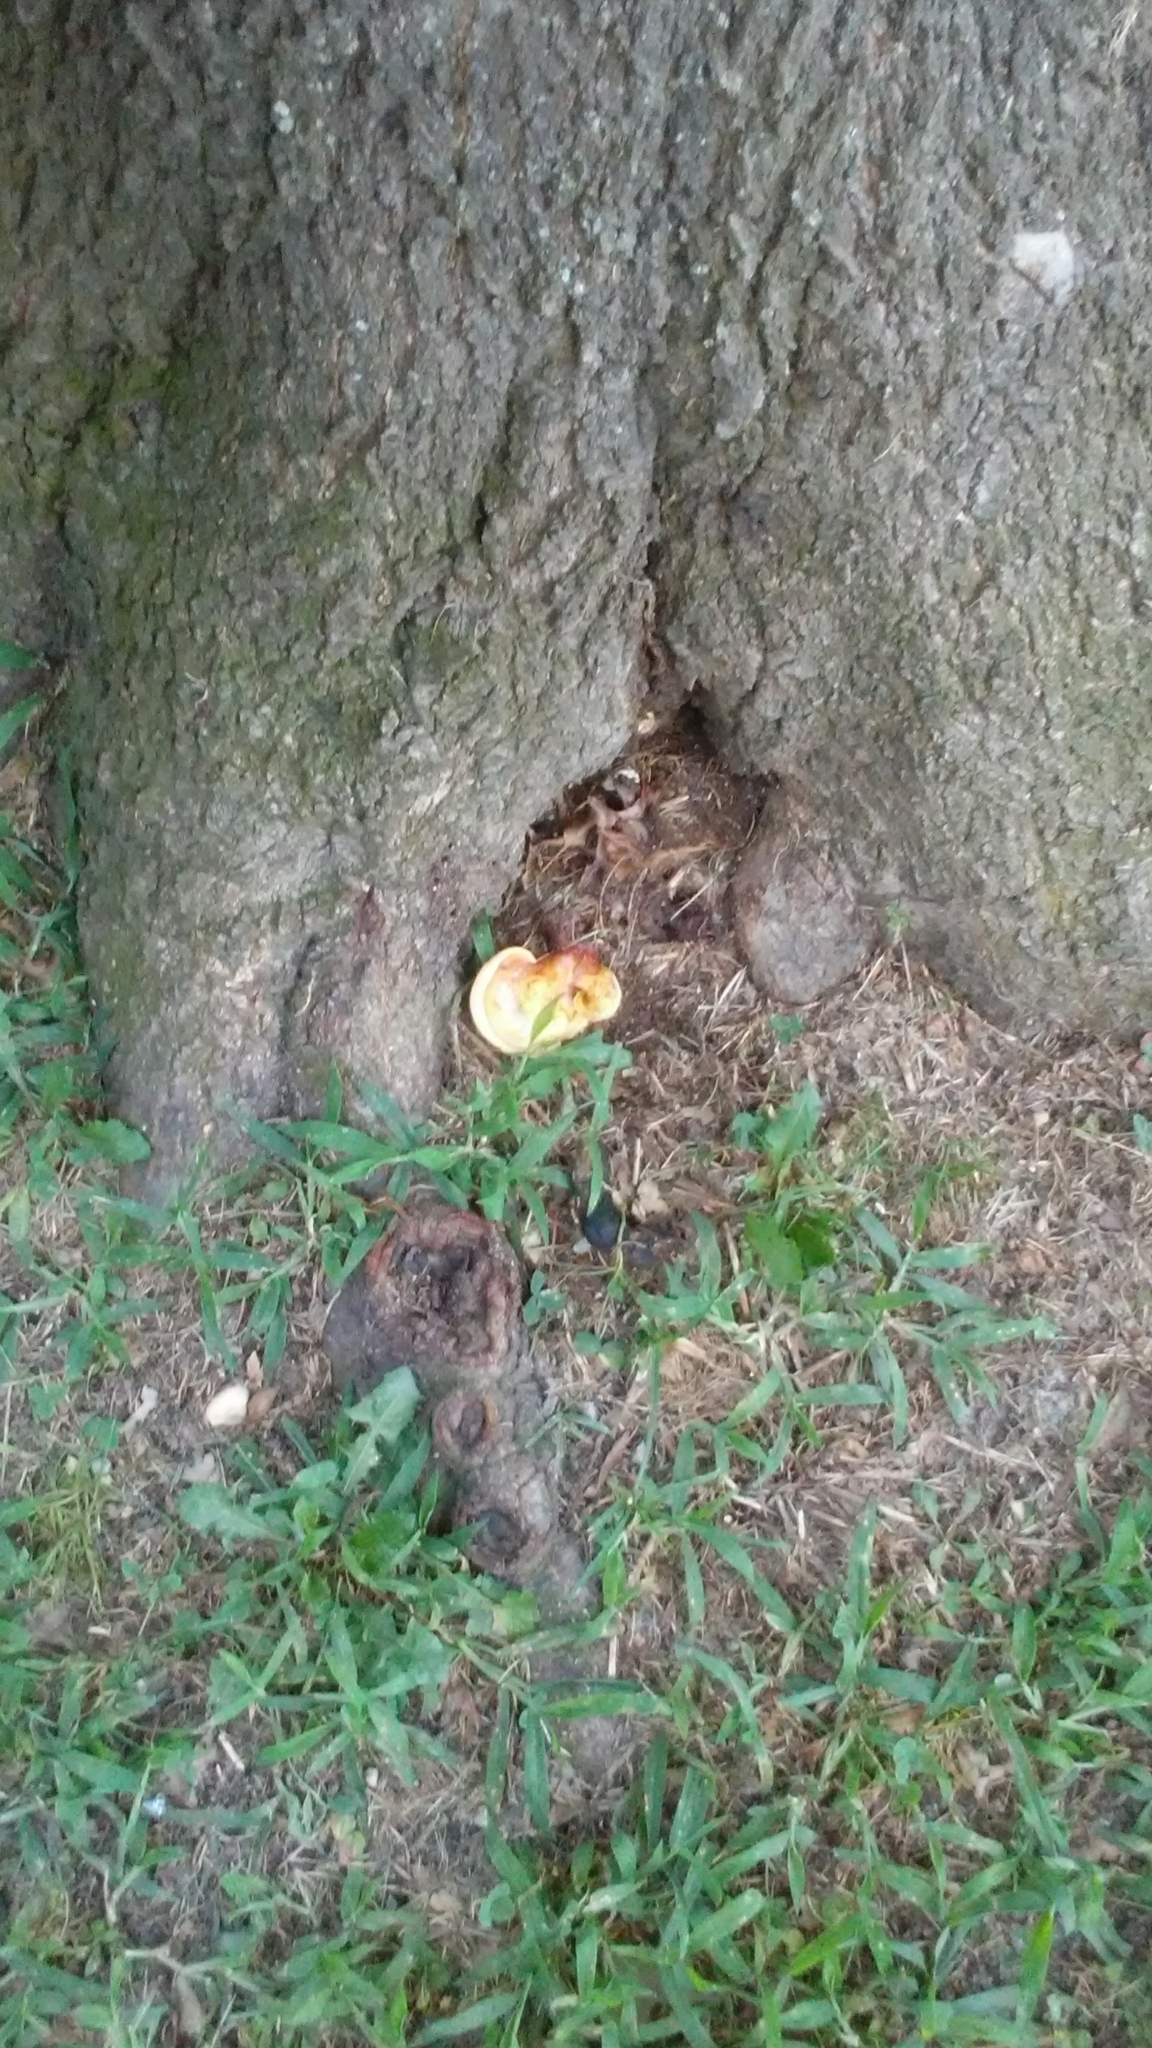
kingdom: Fungi
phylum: Basidiomycota
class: Agaricomycetes
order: Polyporales
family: Polyporaceae
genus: Ganoderma
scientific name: Ganoderma curtisii
